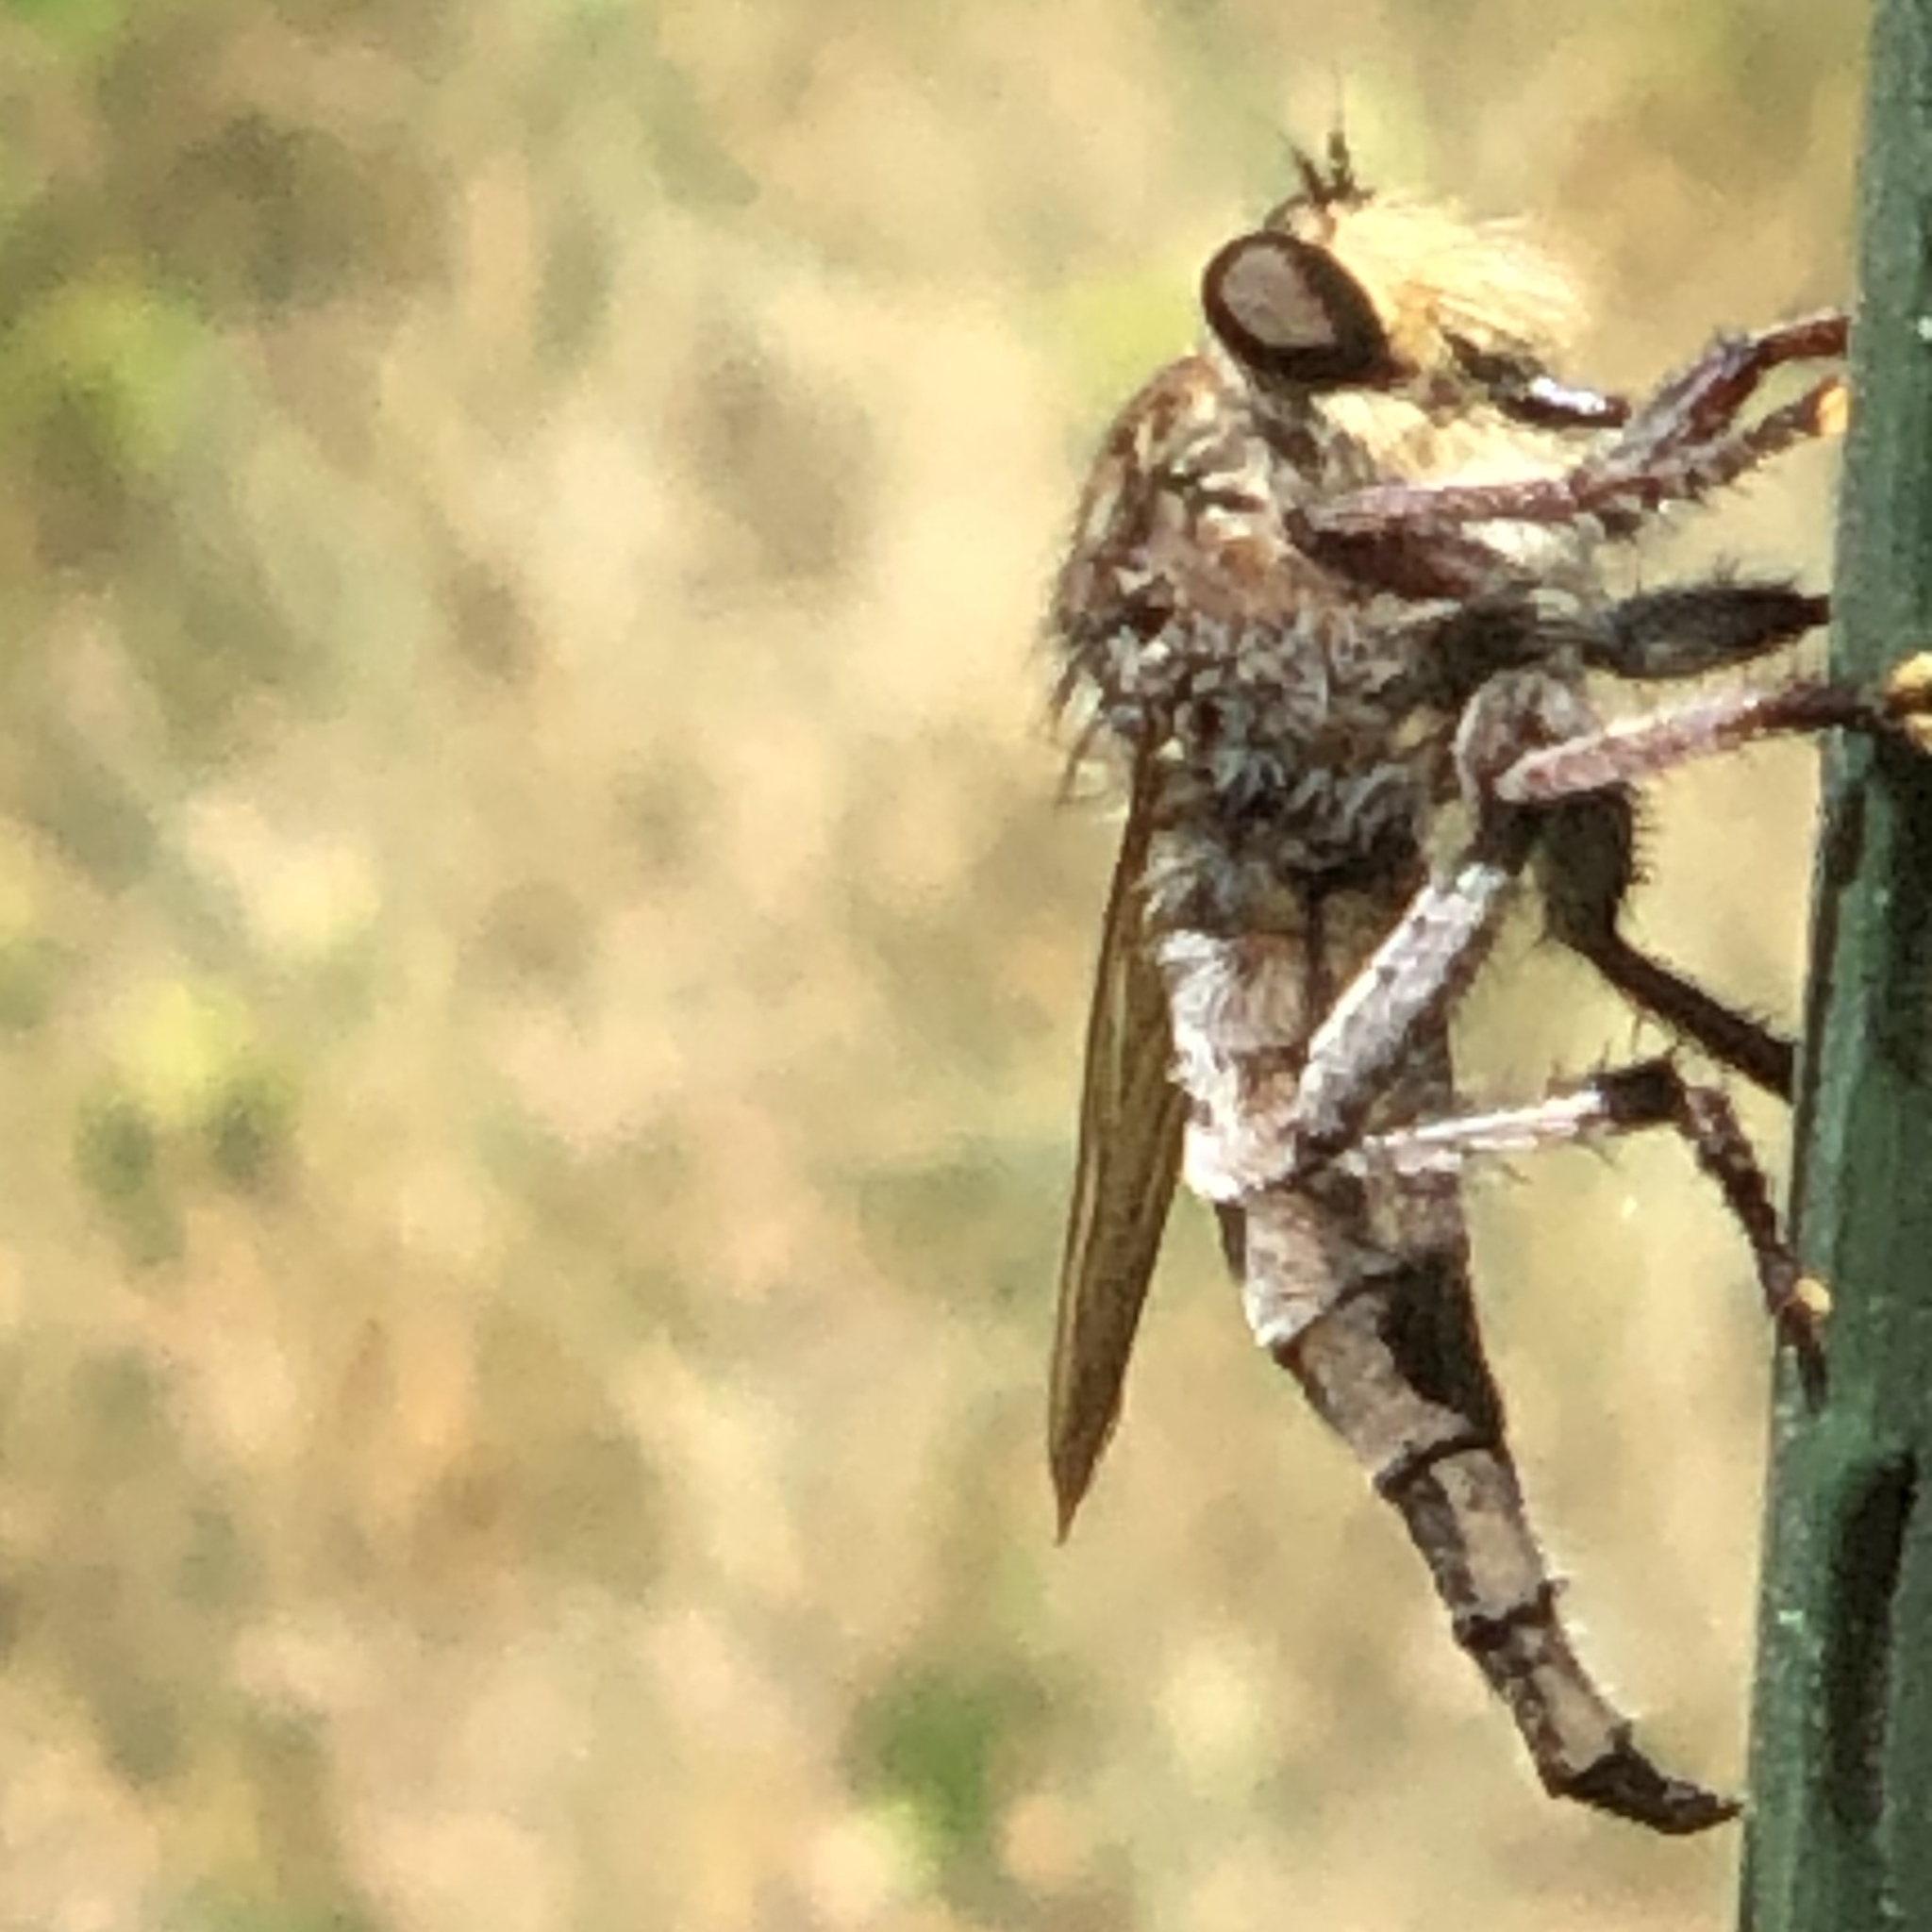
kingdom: Animalia
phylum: Arthropoda
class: Insecta
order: Diptera
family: Asilidae
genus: Promachus
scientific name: Promachus bastardii
